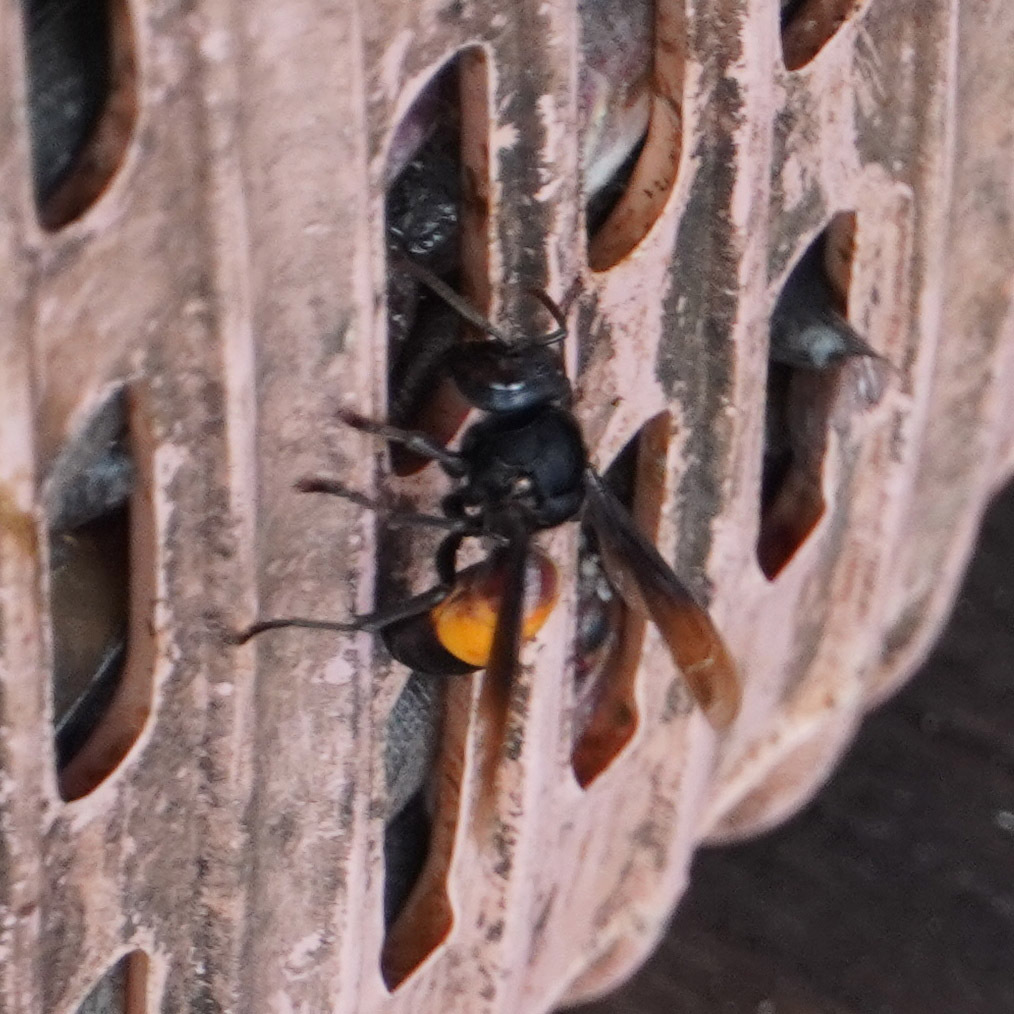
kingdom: Animalia
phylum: Arthropoda
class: Insecta
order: Hymenoptera
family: Vespidae
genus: Vespa
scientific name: Vespa affinis
